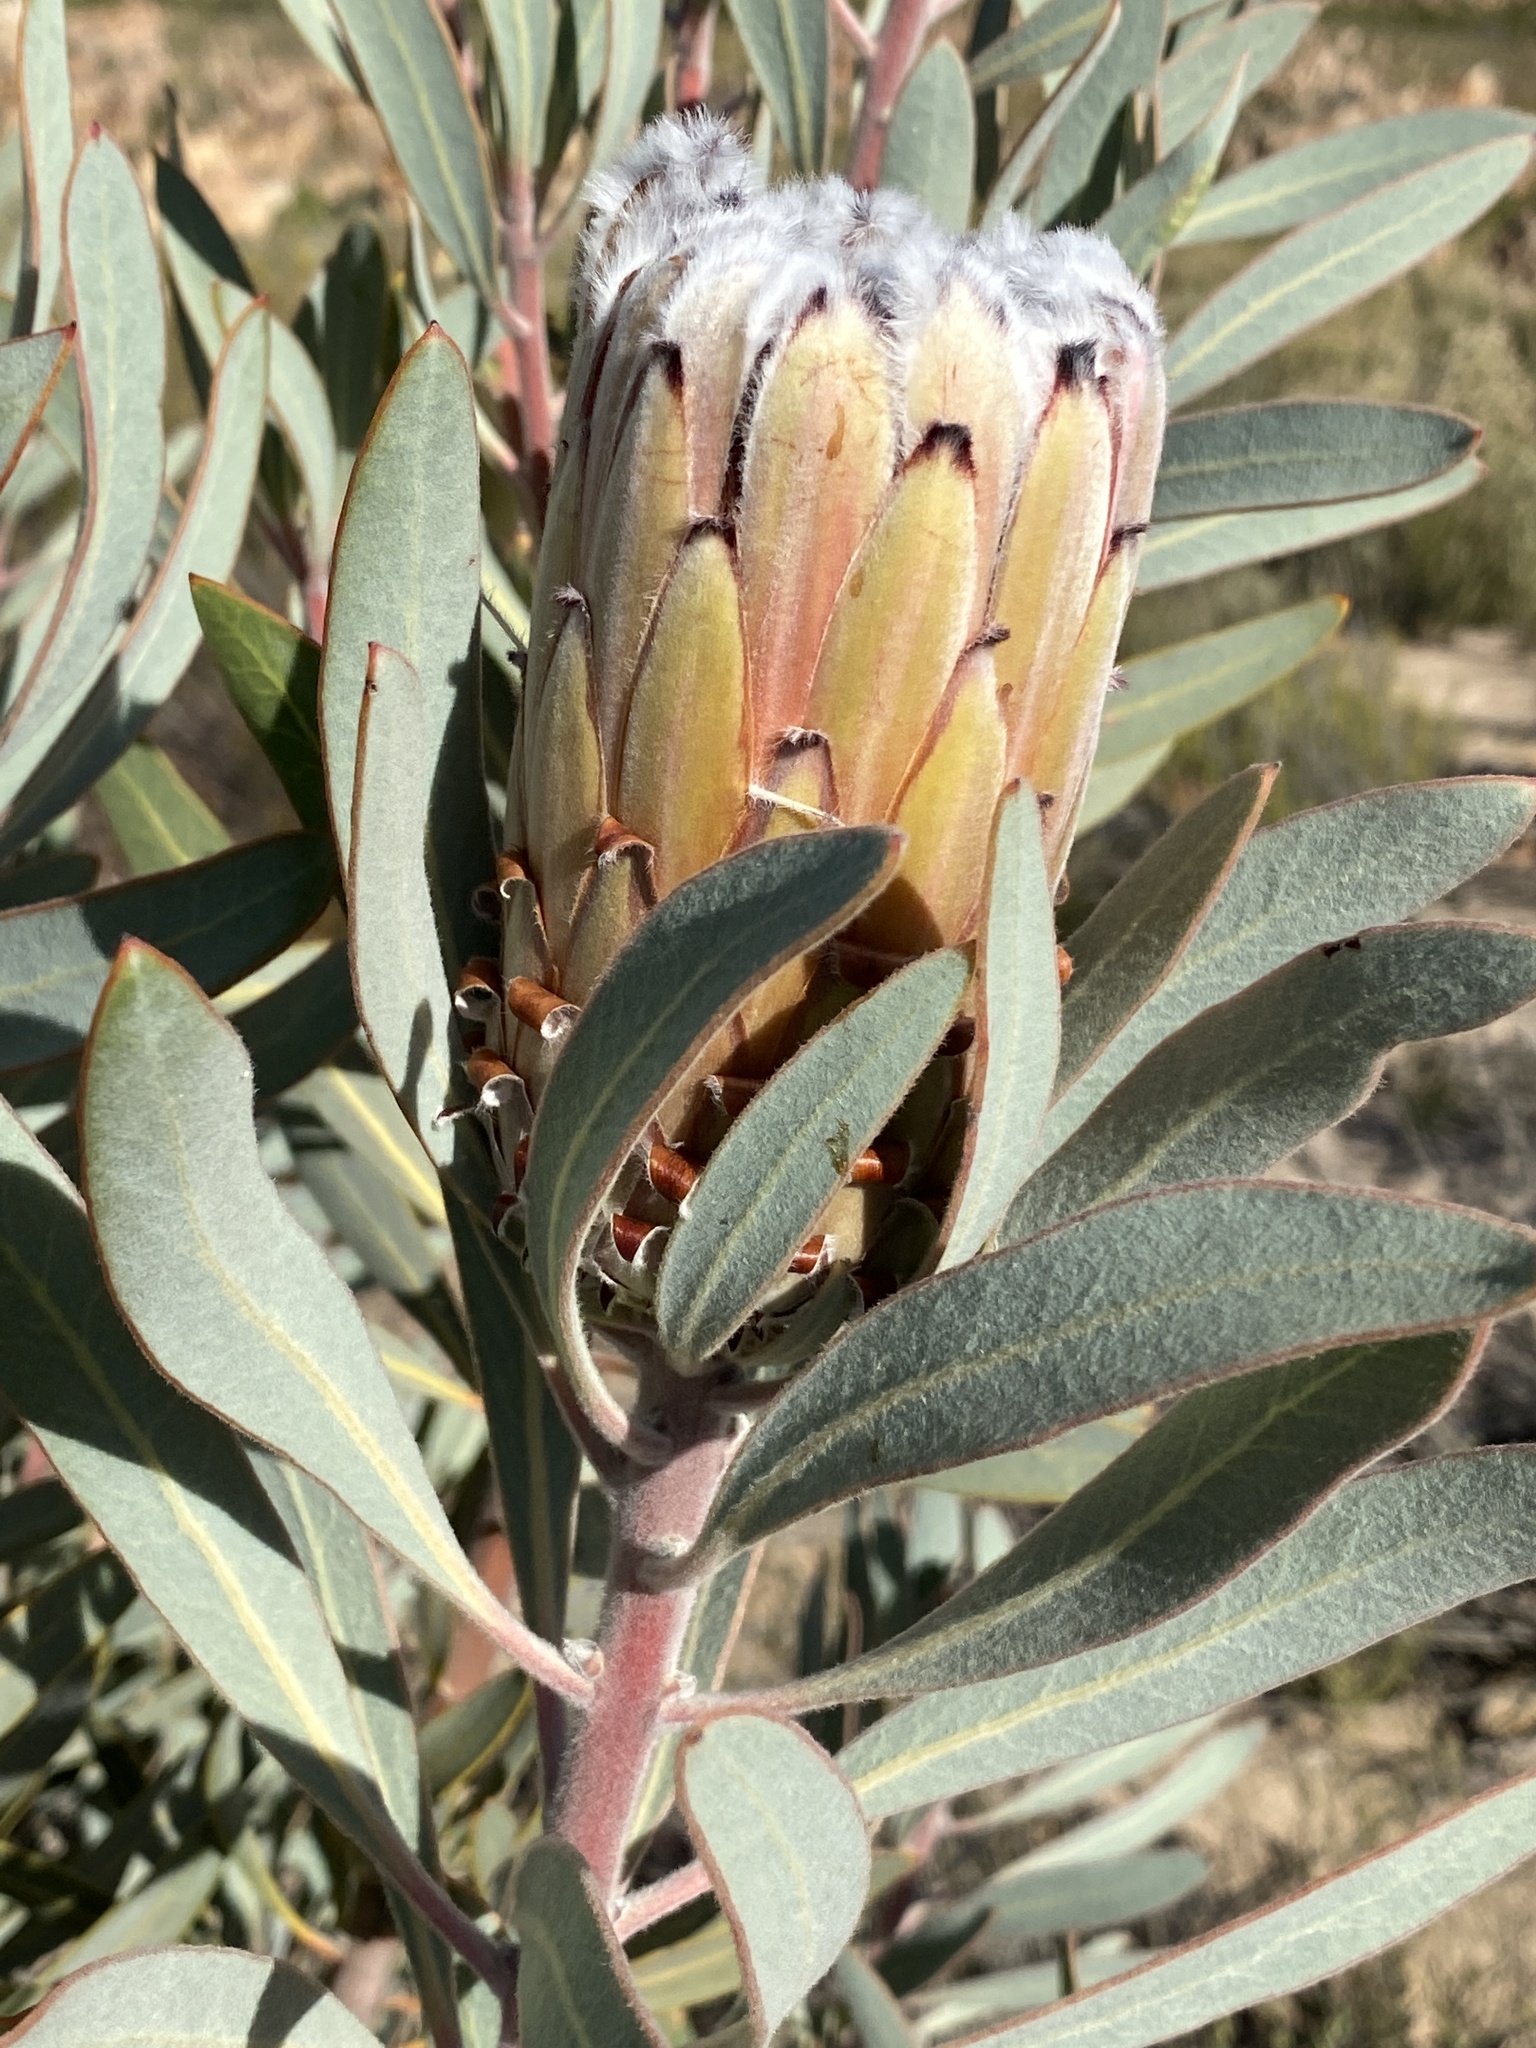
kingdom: Plantae
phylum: Tracheophyta
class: Magnoliopsida
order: Proteales
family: Proteaceae
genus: Protea
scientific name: Protea laurifolia
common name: Grey-leaf sugarbsh
